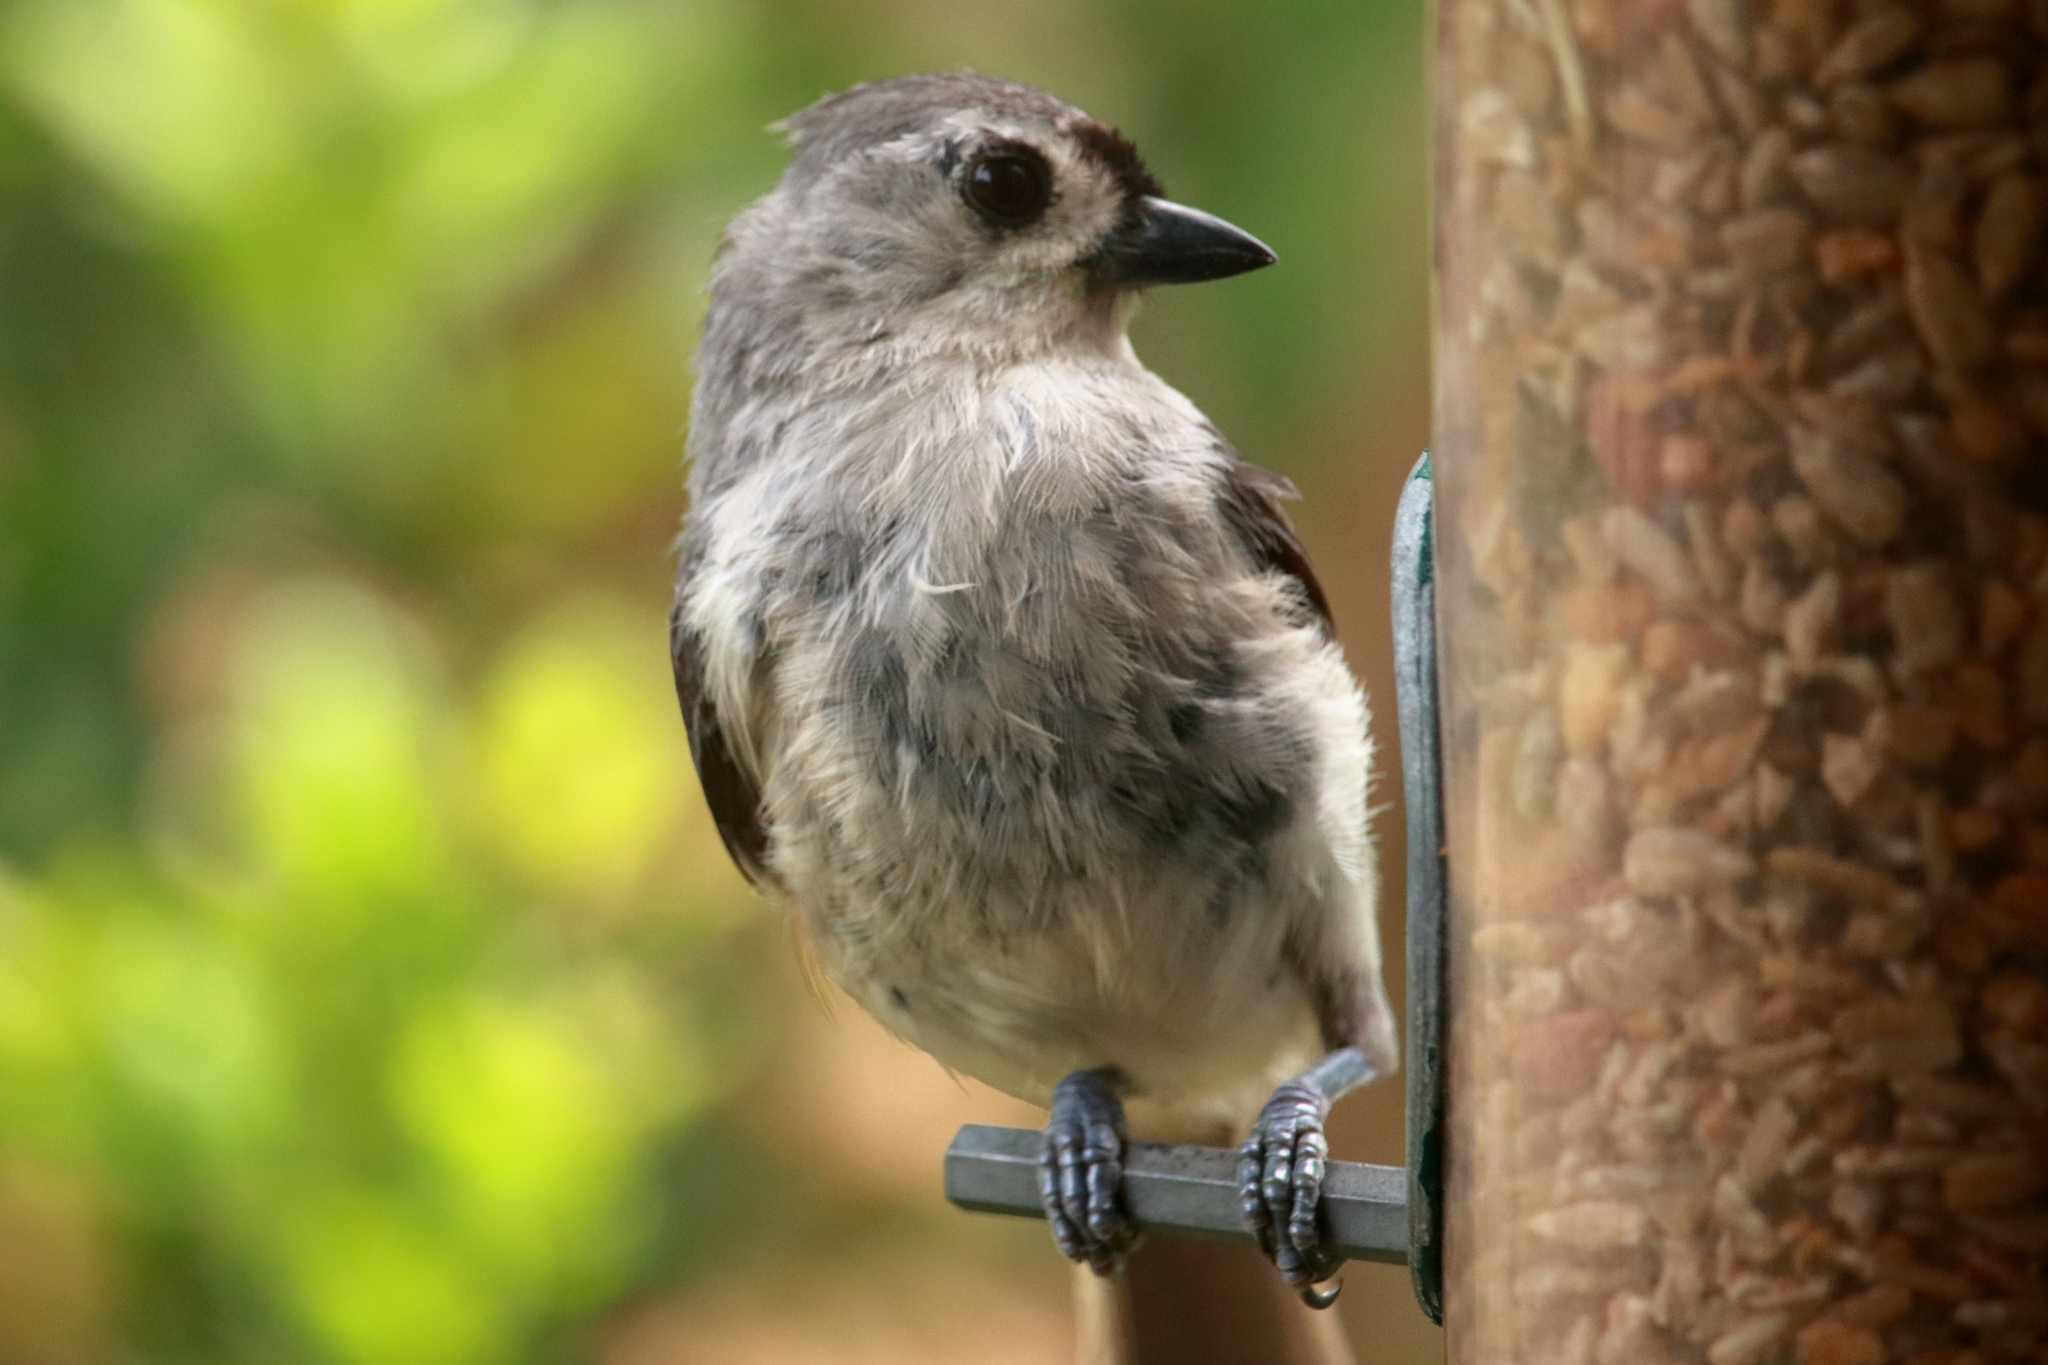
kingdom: Animalia
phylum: Chordata
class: Aves
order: Passeriformes
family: Paridae
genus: Baeolophus
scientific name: Baeolophus bicolor
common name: Tufted titmouse
